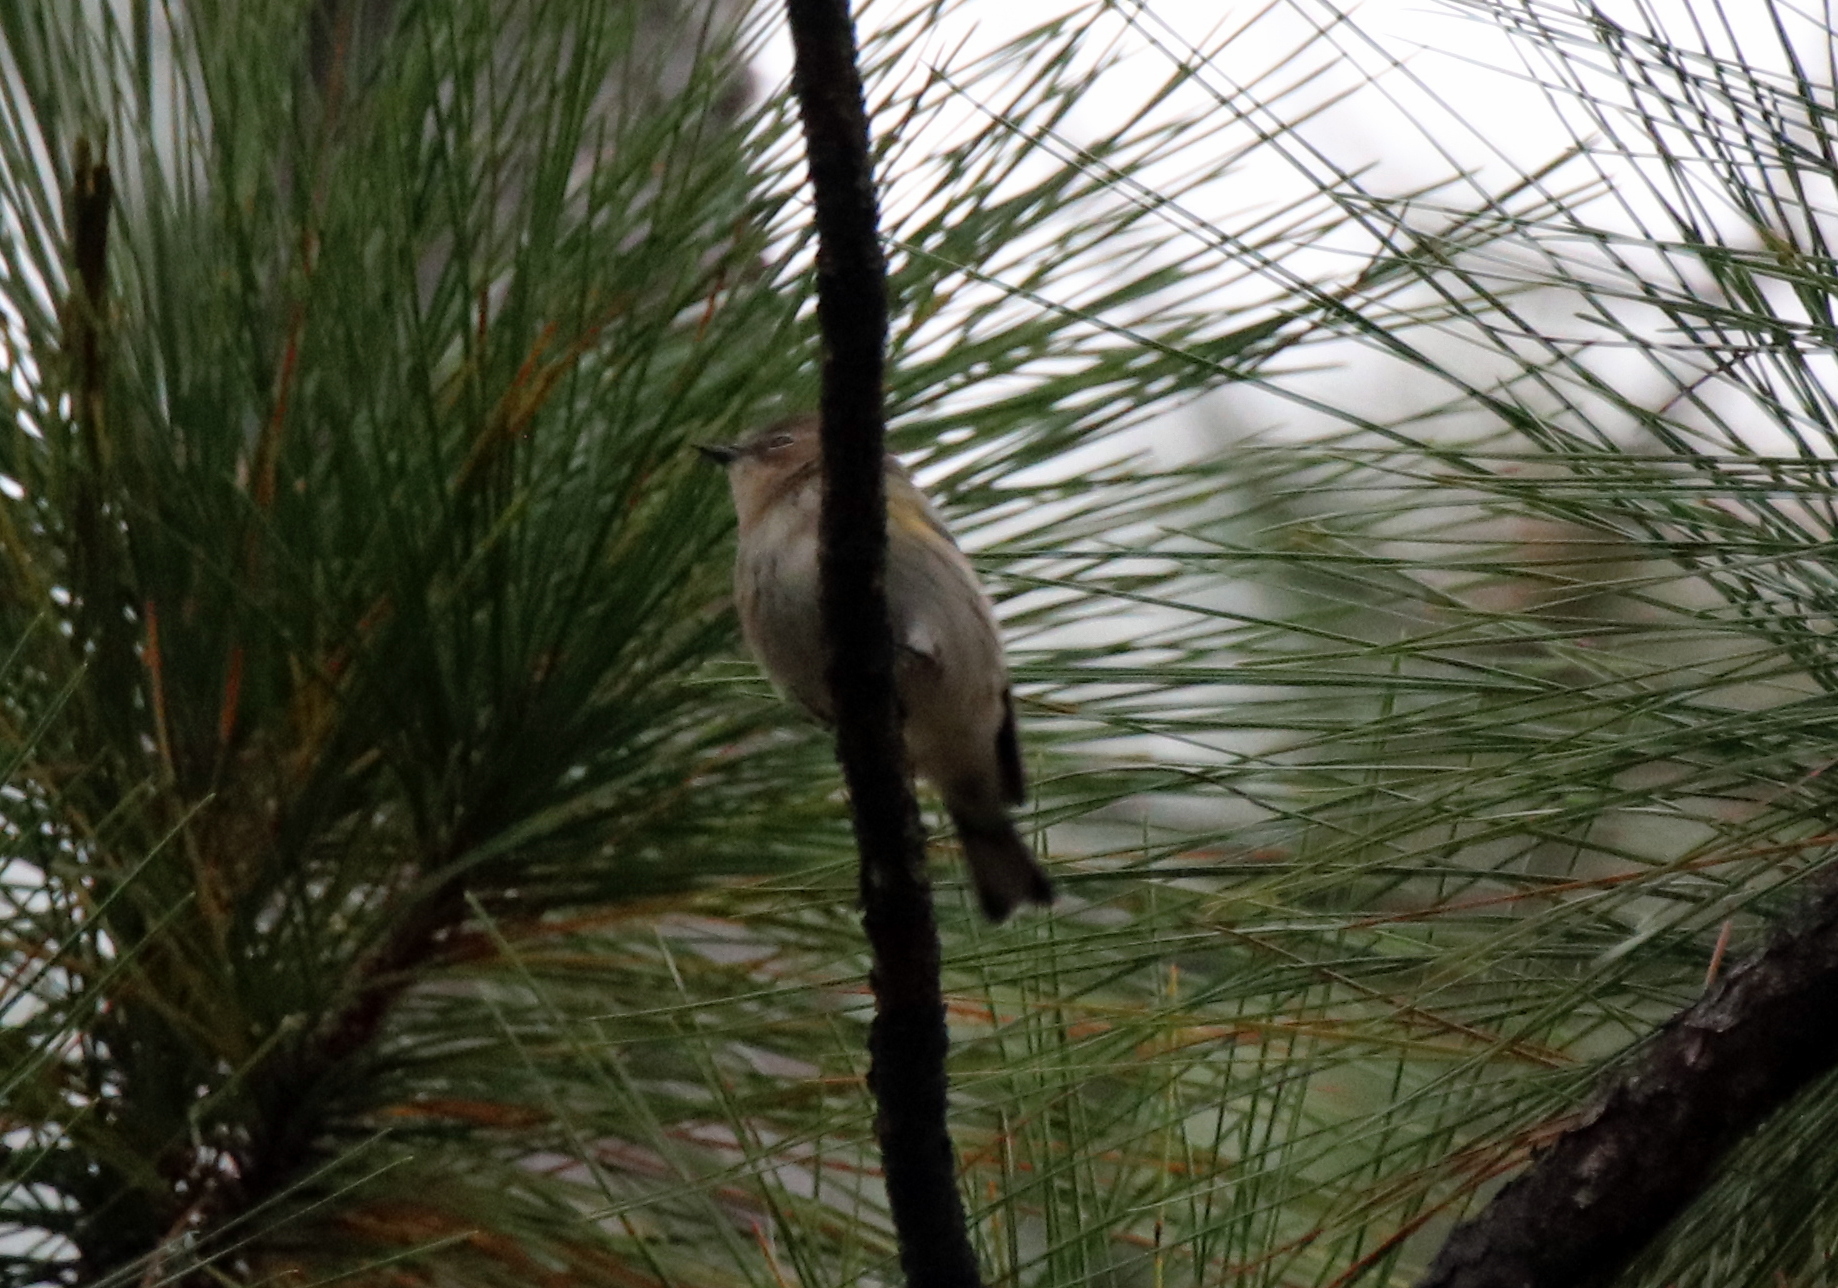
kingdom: Animalia
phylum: Chordata
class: Aves
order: Passeriformes
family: Parulidae
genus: Setophaga
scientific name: Setophaga coronata
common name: Myrtle warbler
